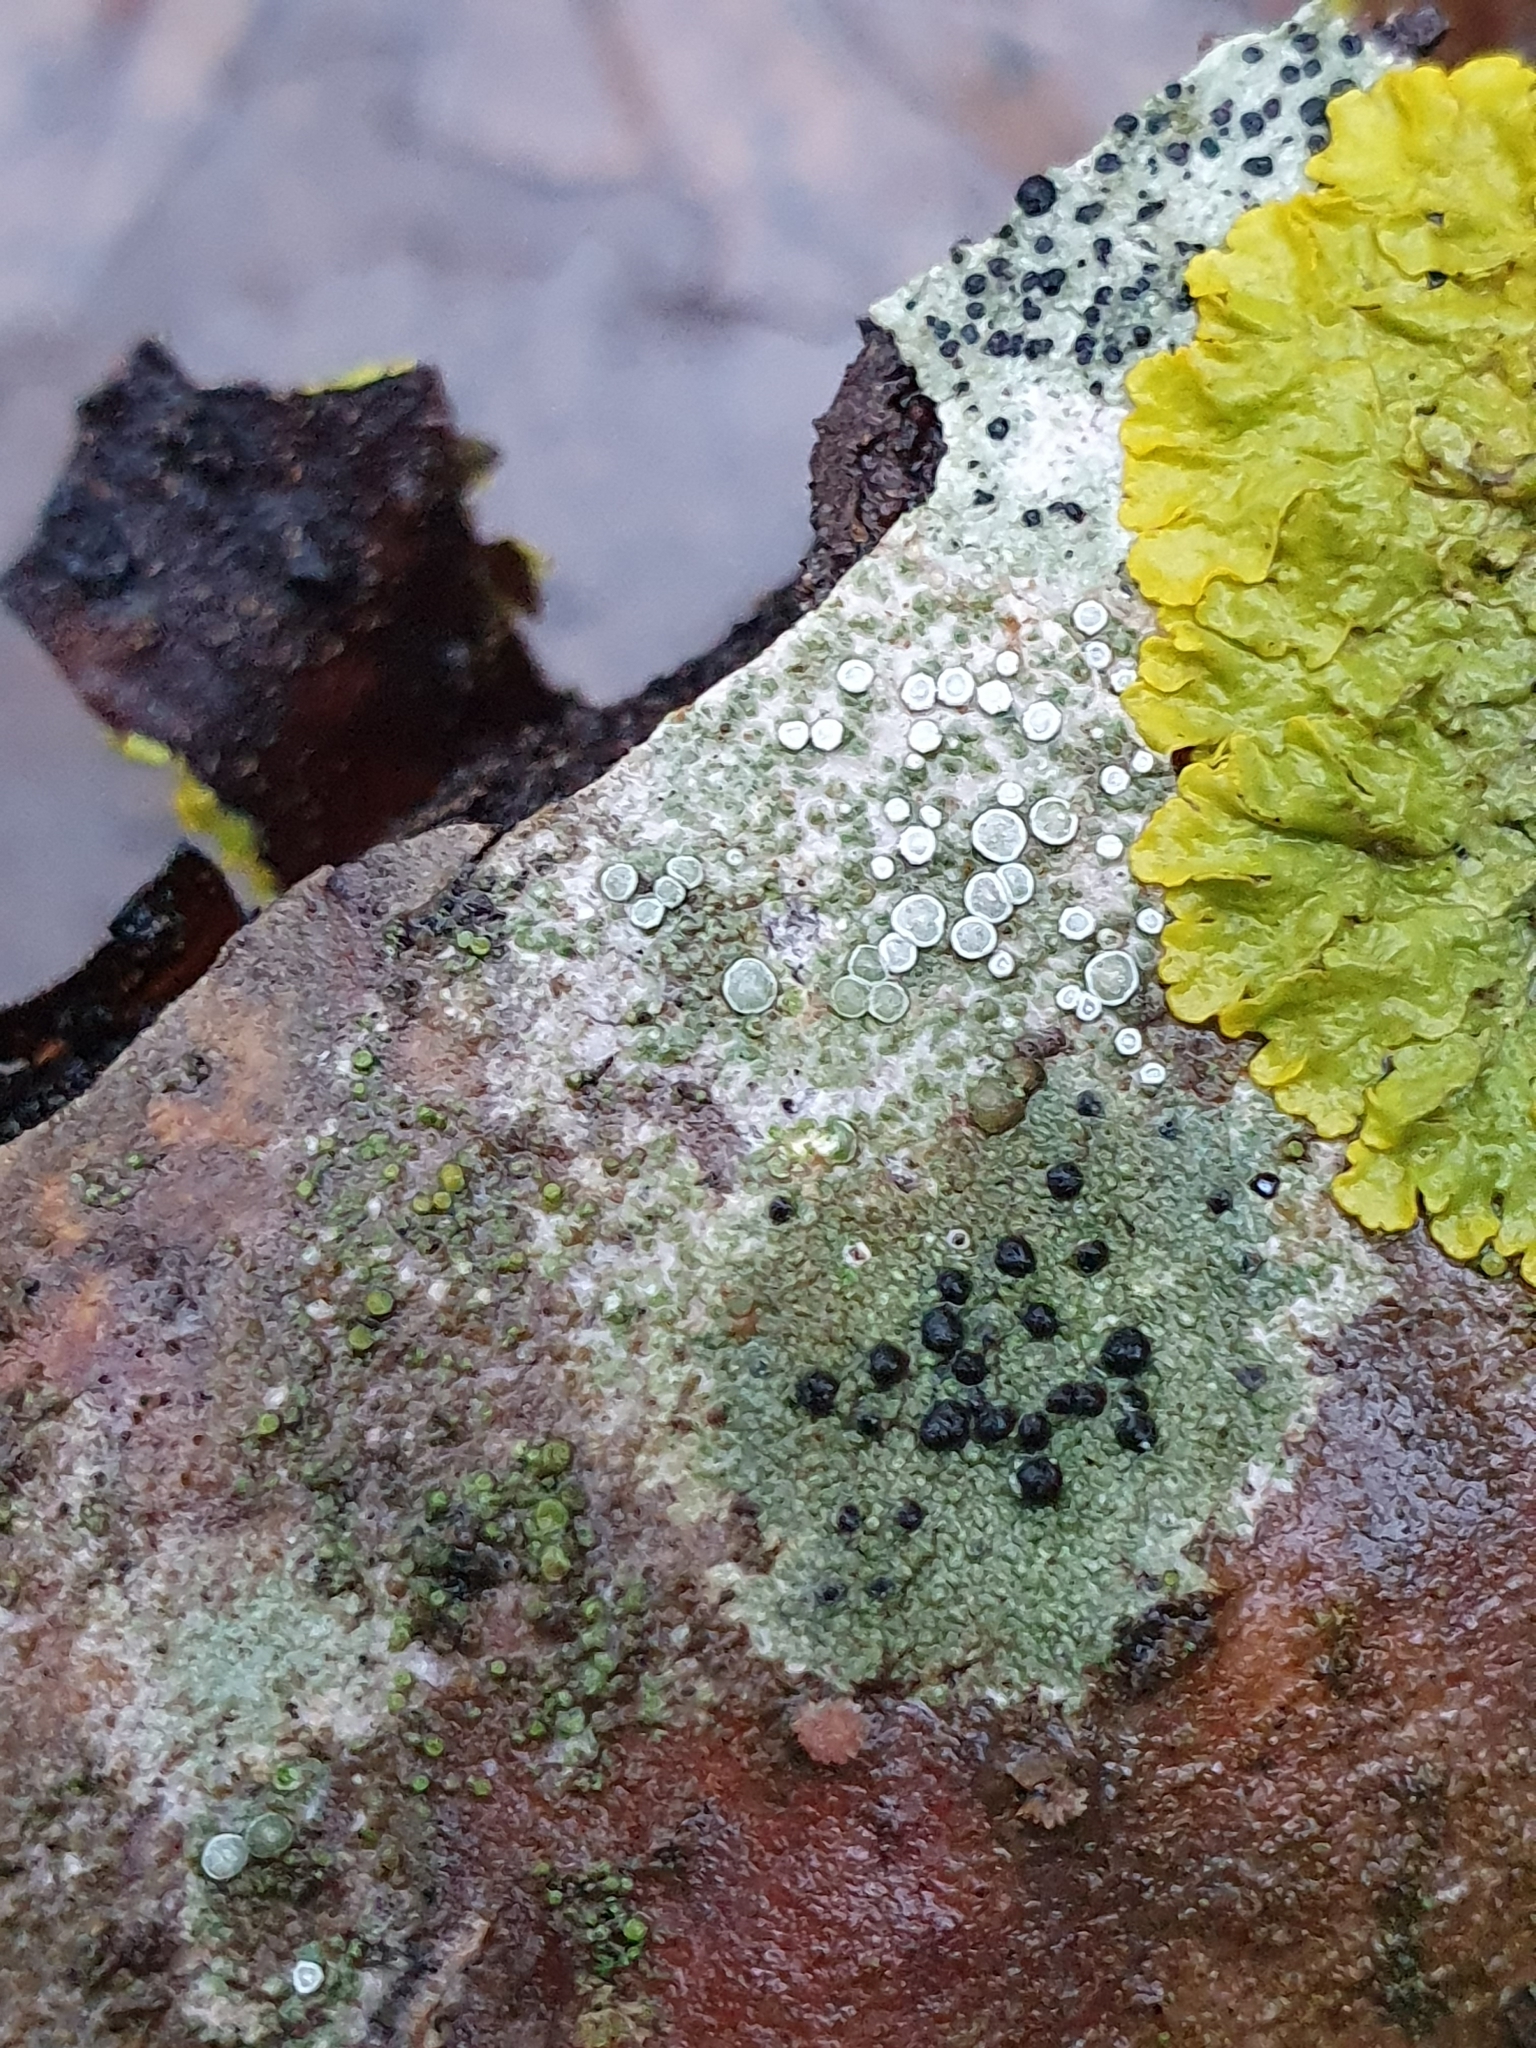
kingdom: Fungi
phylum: Ascomycota
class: Lecanoromycetes
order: Lecanorales
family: Lecanoraceae
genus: Lecidella
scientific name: Lecidella elaeochroma
